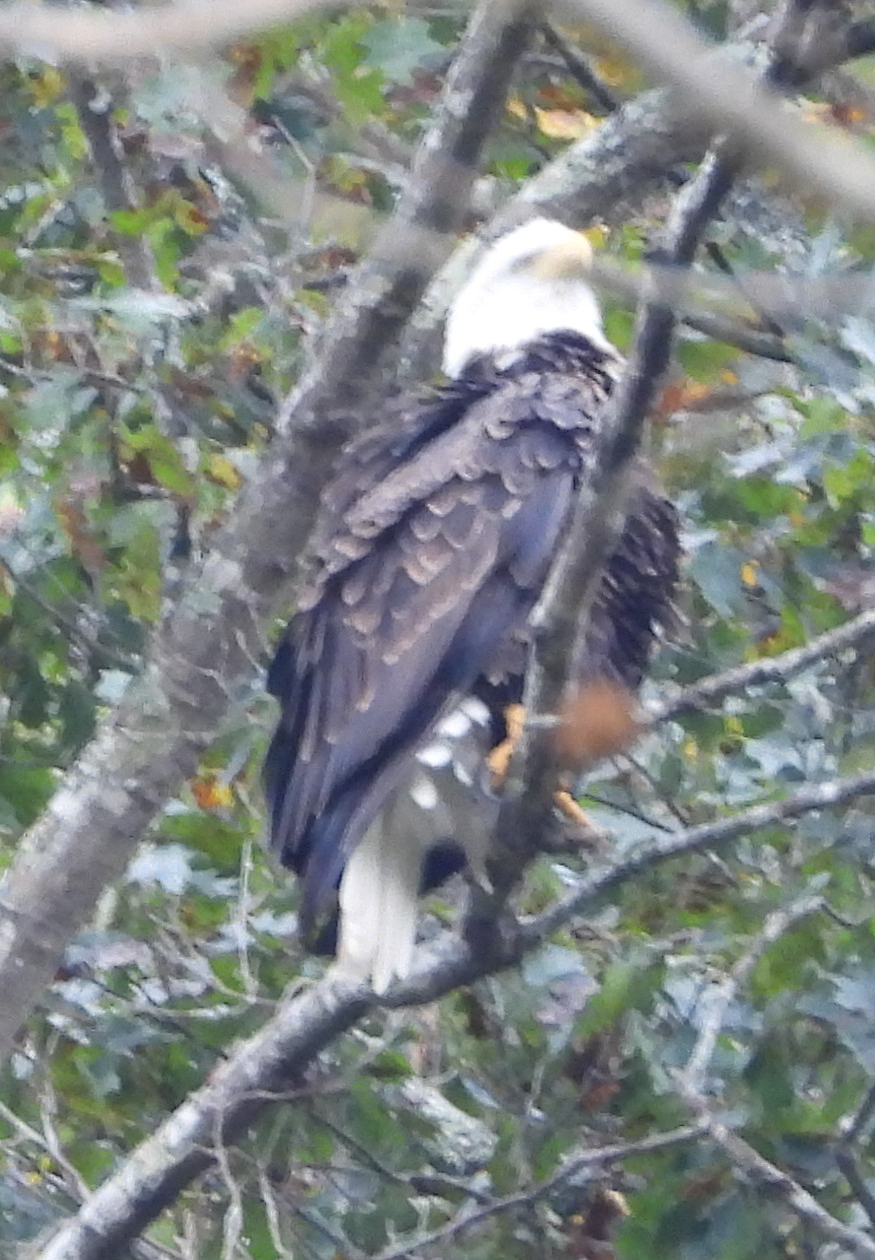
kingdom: Animalia
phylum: Chordata
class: Aves
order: Accipitriformes
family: Accipitridae
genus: Haliaeetus
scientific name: Haliaeetus leucocephalus
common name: Bald eagle
